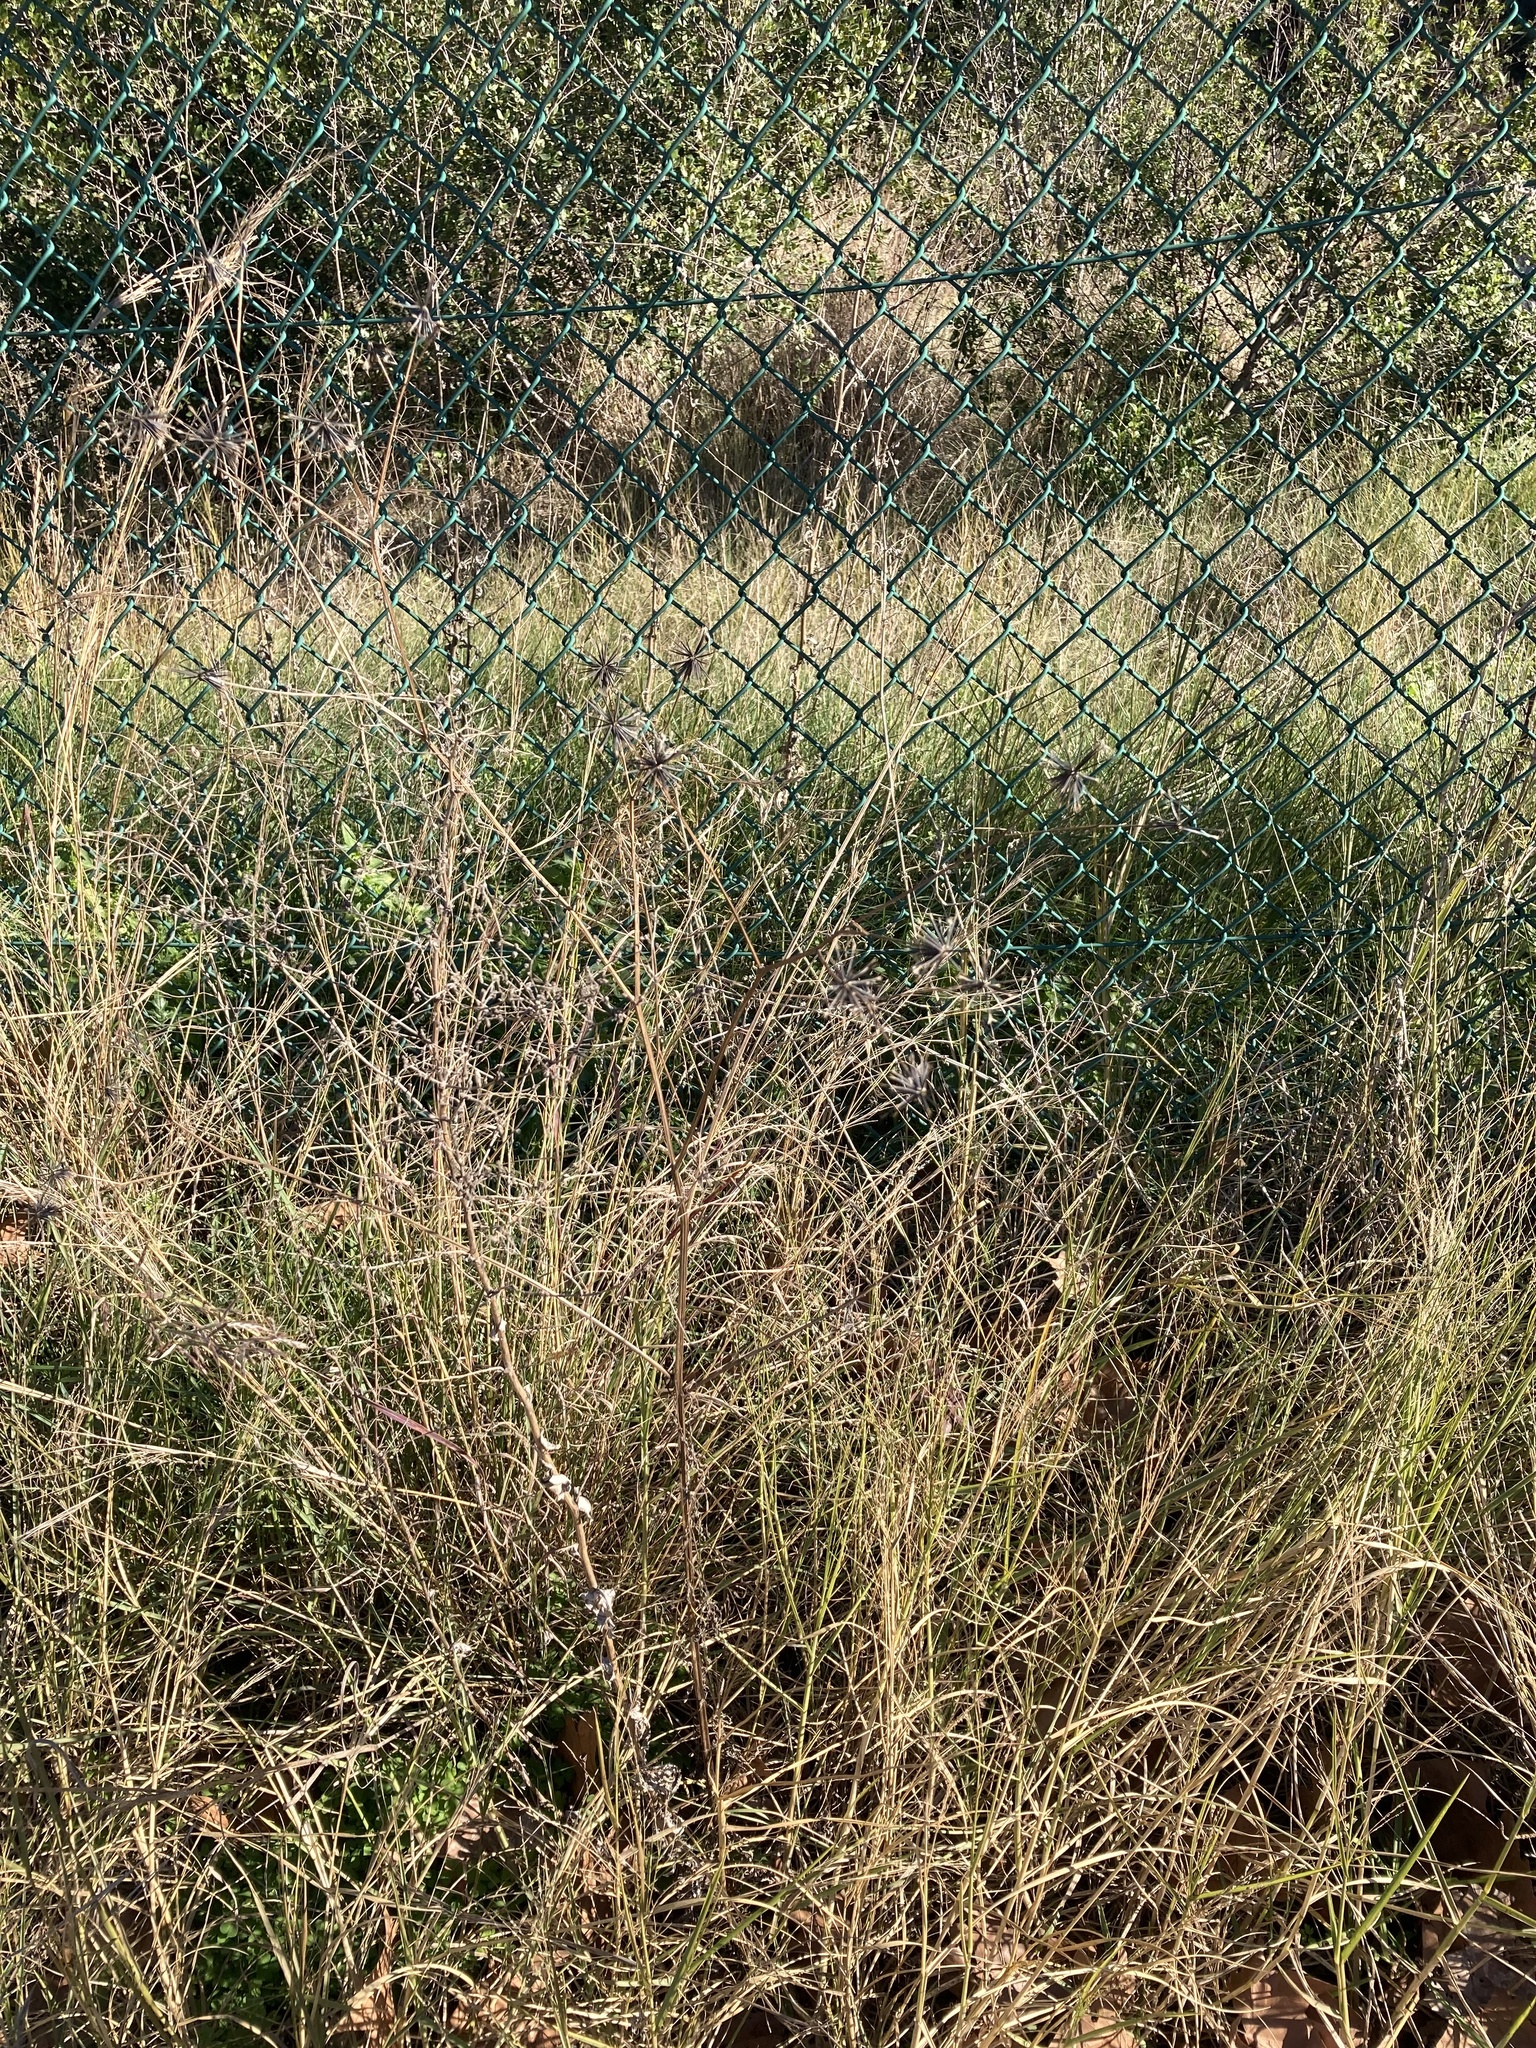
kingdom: Plantae
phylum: Tracheophyta
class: Magnoliopsida
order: Asterales
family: Asteraceae
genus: Bidens
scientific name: Bidens subalternans
